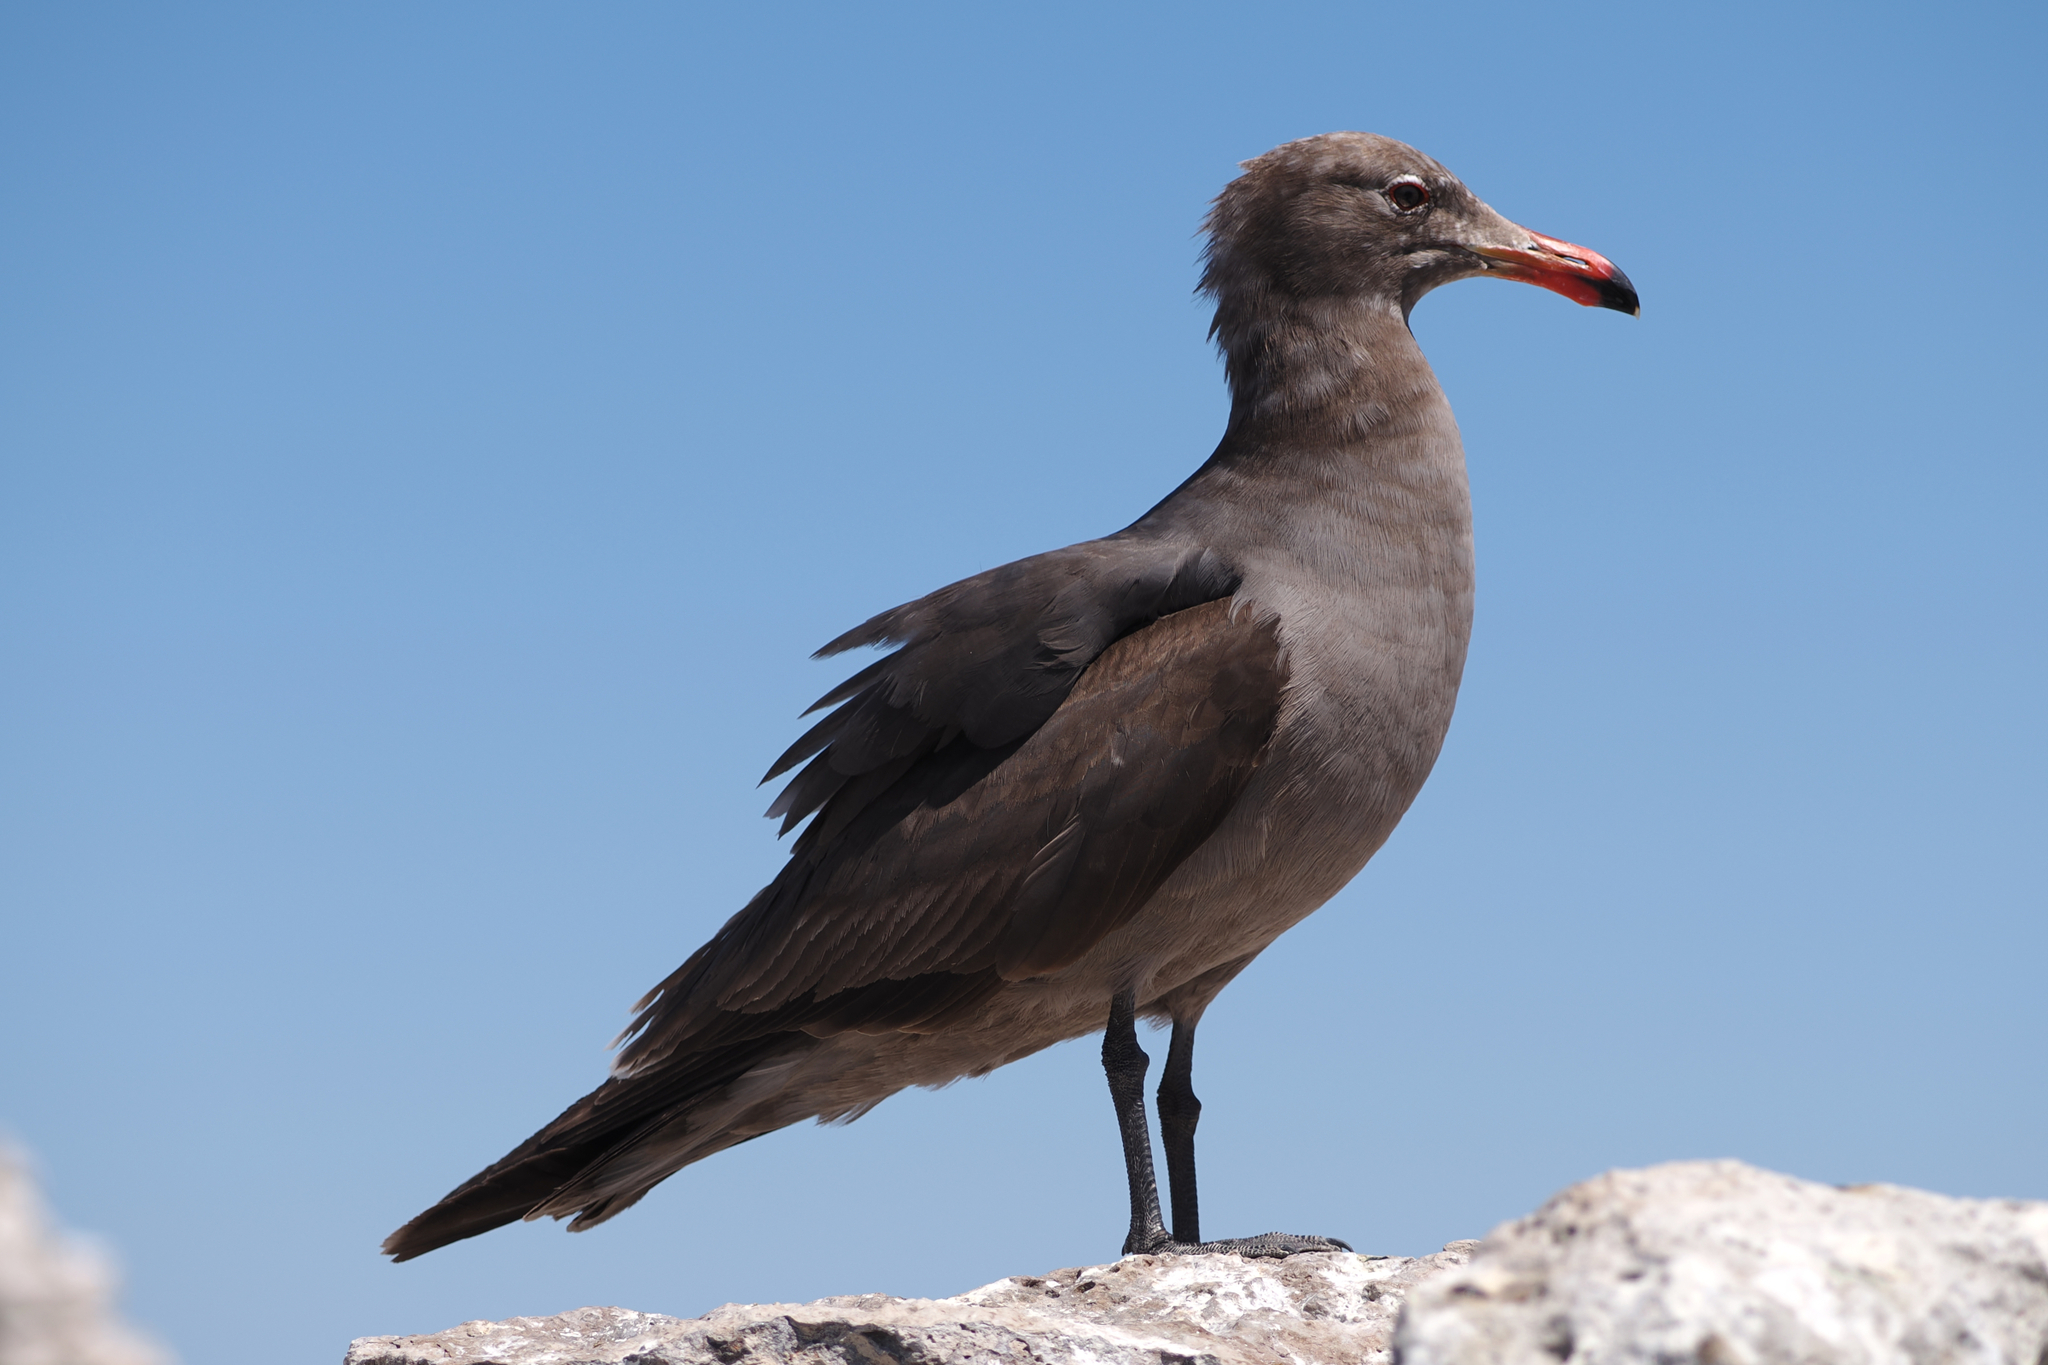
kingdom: Animalia
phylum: Chordata
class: Aves
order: Charadriiformes
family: Laridae
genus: Larus
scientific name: Larus heermanni
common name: Heermann's gull
